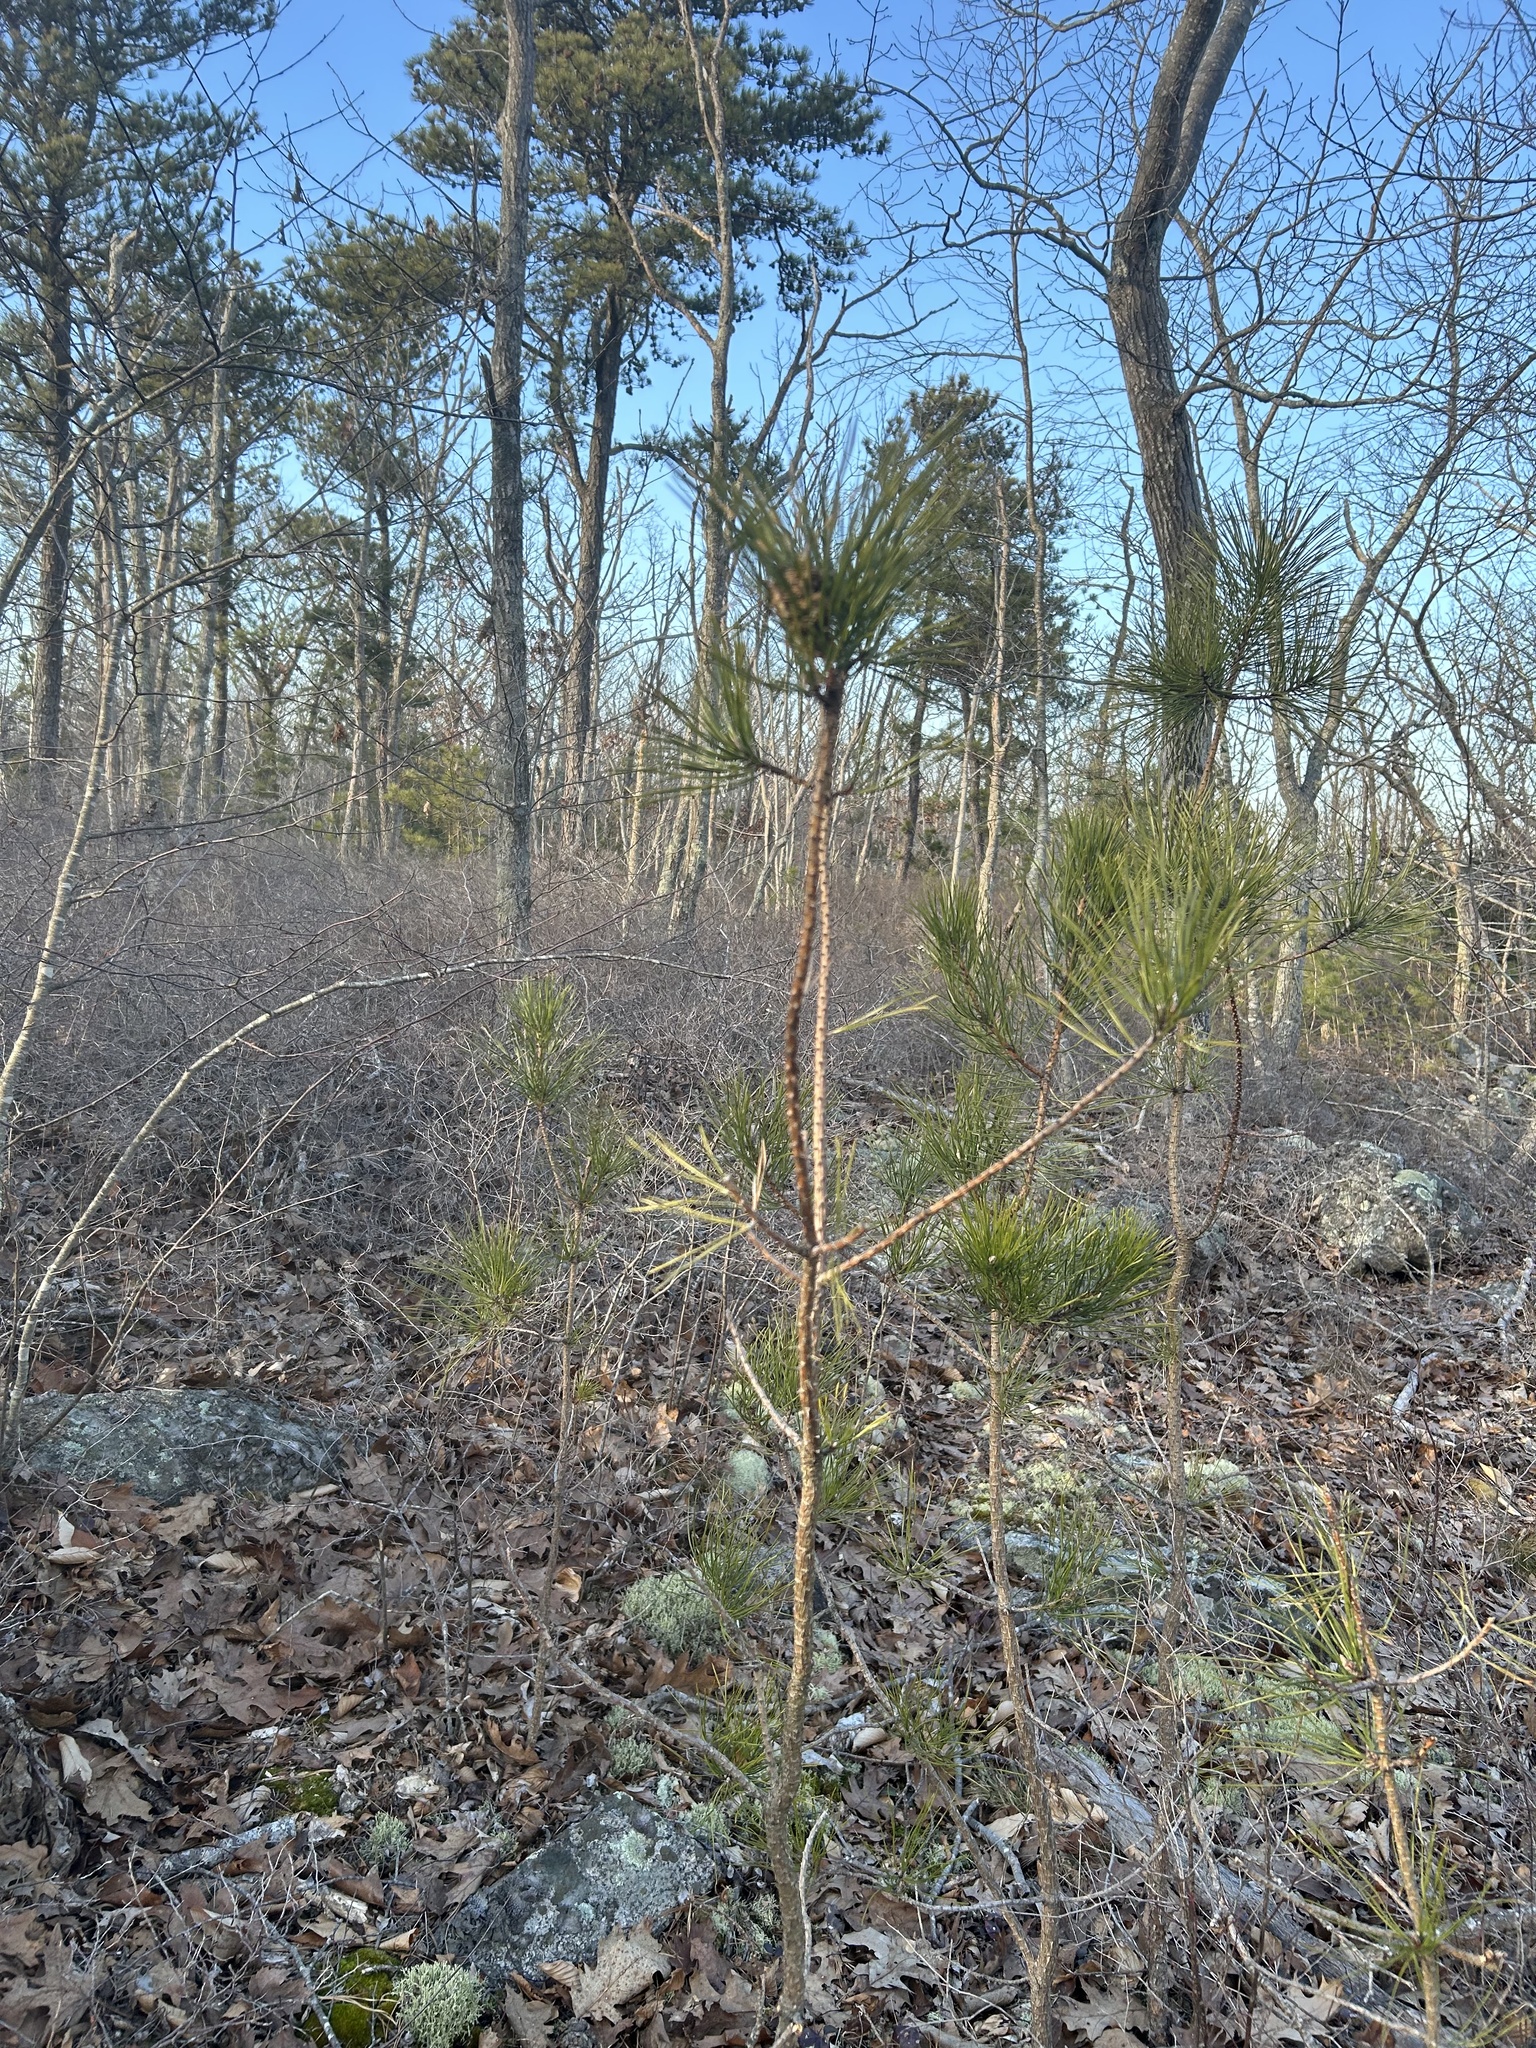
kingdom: Plantae
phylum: Tracheophyta
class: Pinopsida
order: Pinales
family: Pinaceae
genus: Pinus
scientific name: Pinus rigida
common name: Pitch pine
